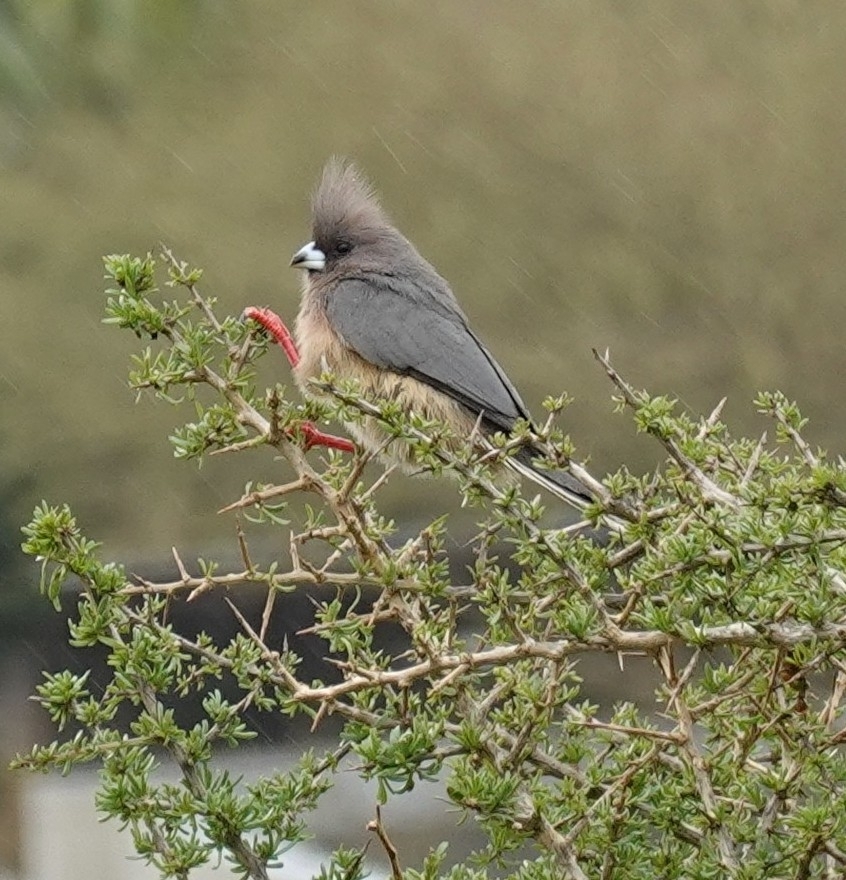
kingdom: Animalia
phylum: Chordata
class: Aves
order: Coliiformes
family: Coliidae
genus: Colius
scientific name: Colius colius
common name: White-backed mousebird
